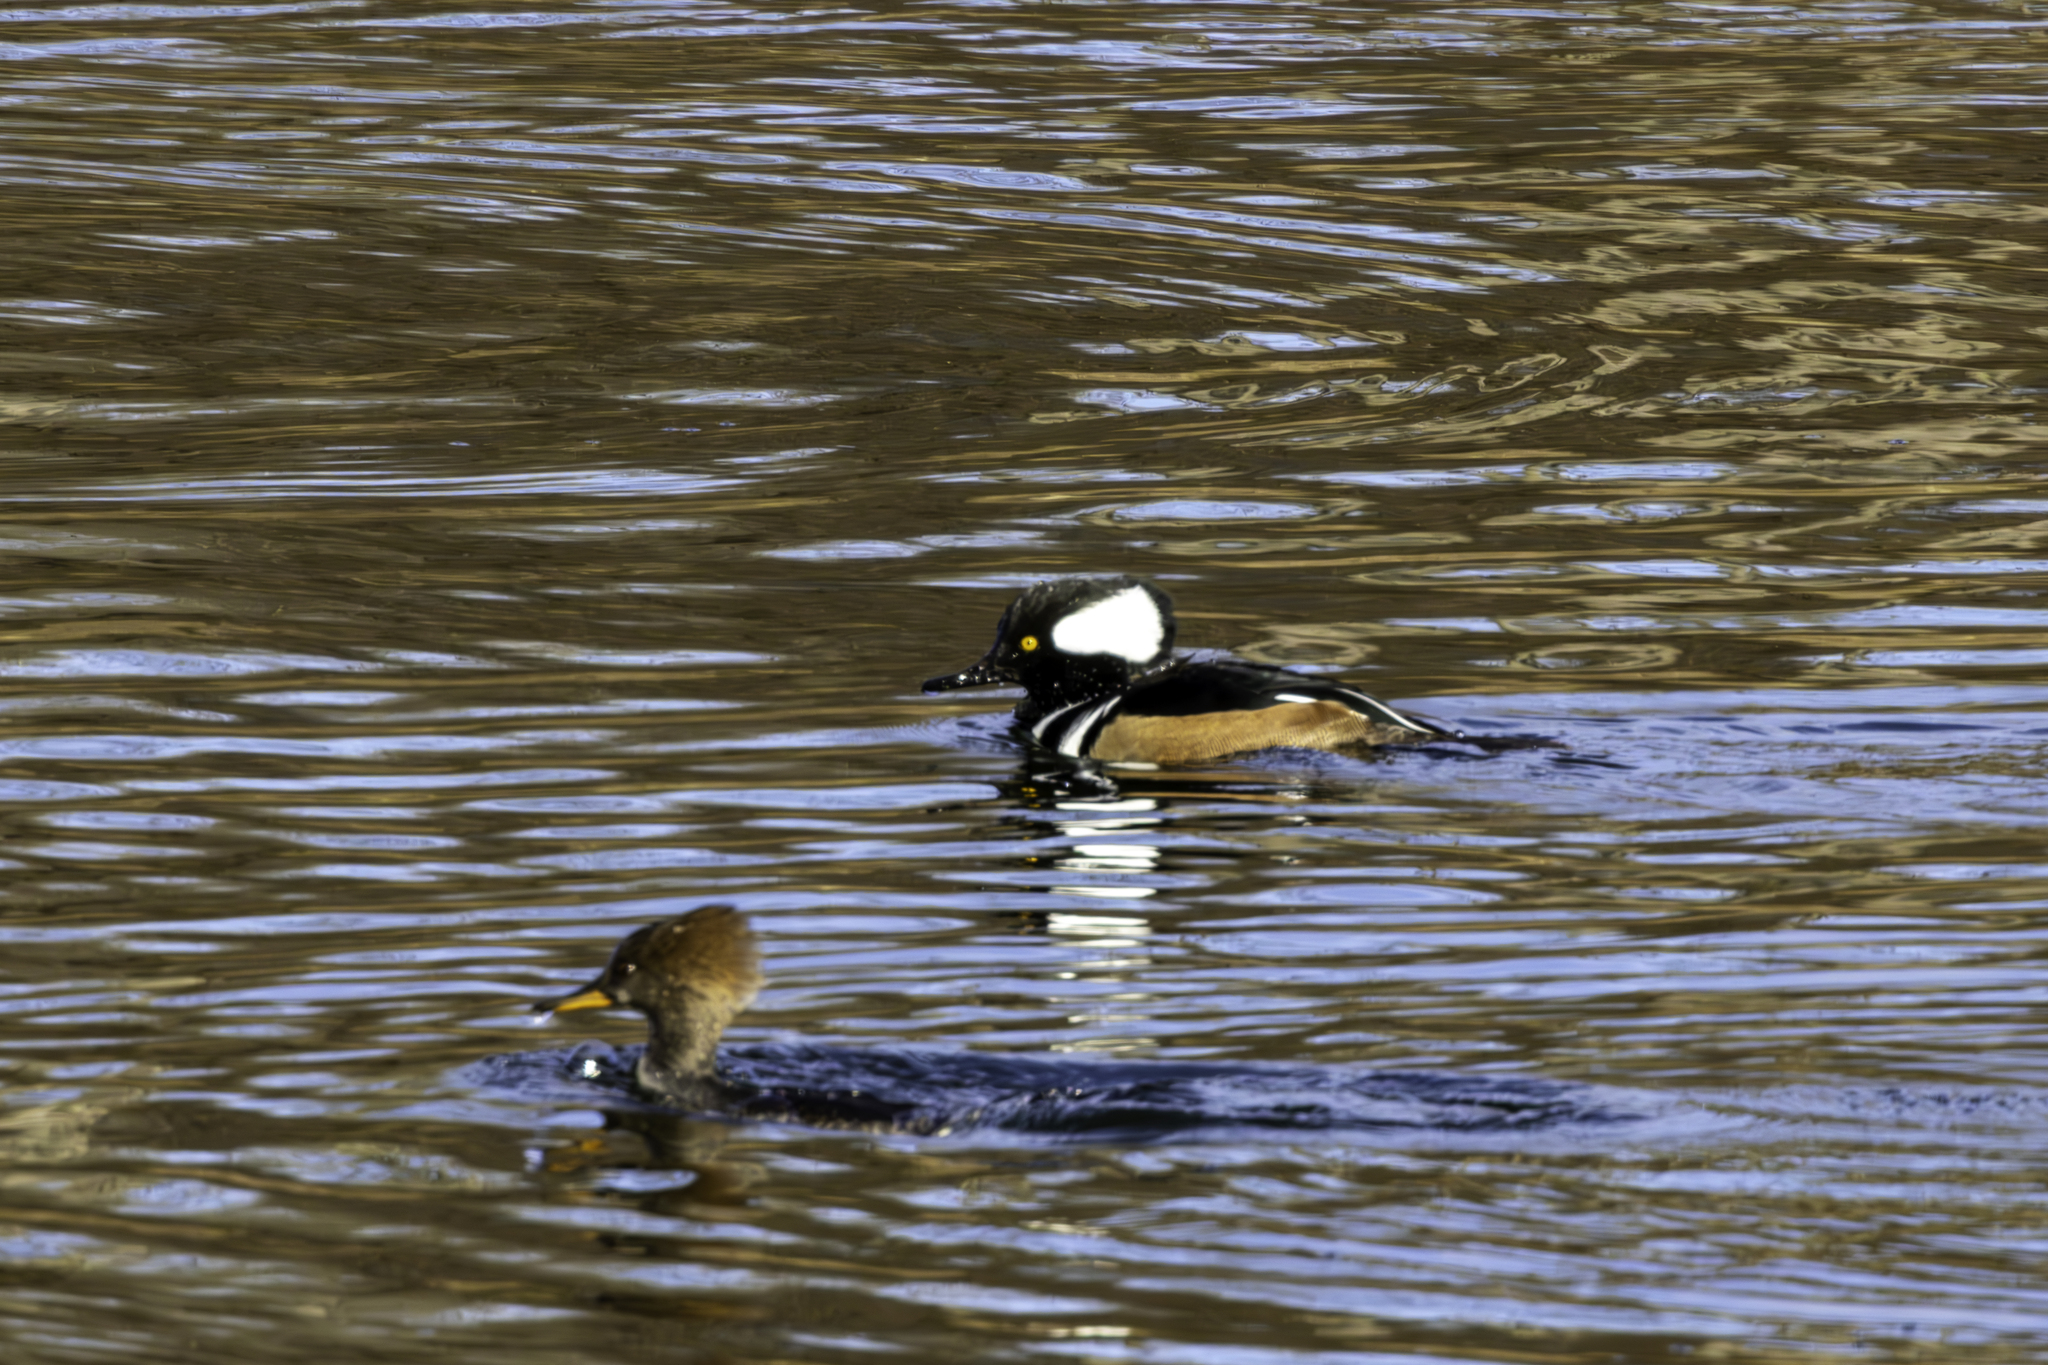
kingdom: Animalia
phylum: Chordata
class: Aves
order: Anseriformes
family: Anatidae
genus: Lophodytes
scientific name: Lophodytes cucullatus
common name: Hooded merganser
